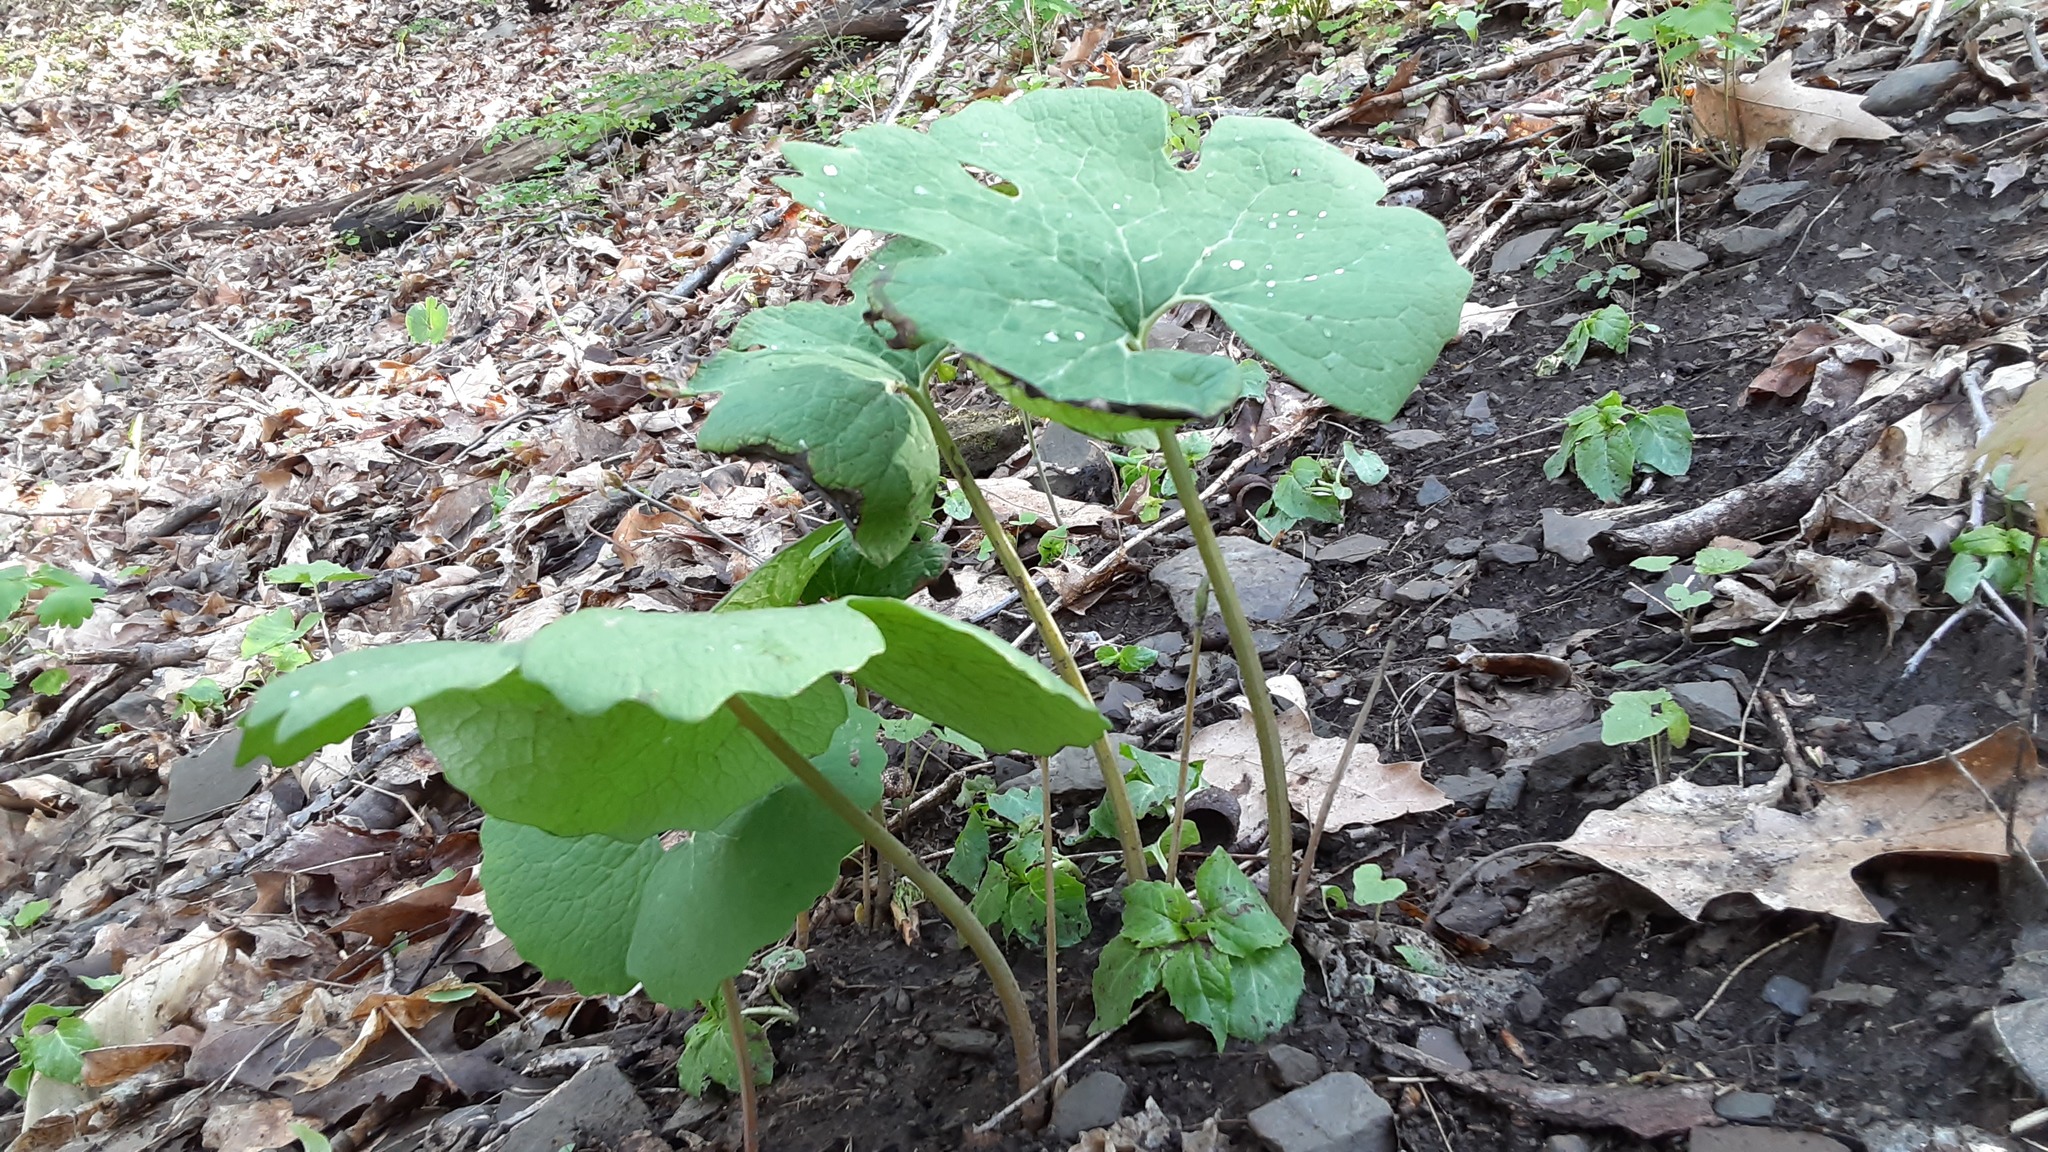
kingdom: Plantae
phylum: Tracheophyta
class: Magnoliopsida
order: Ranunculales
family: Papaveraceae
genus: Sanguinaria
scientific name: Sanguinaria canadensis
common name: Bloodroot
